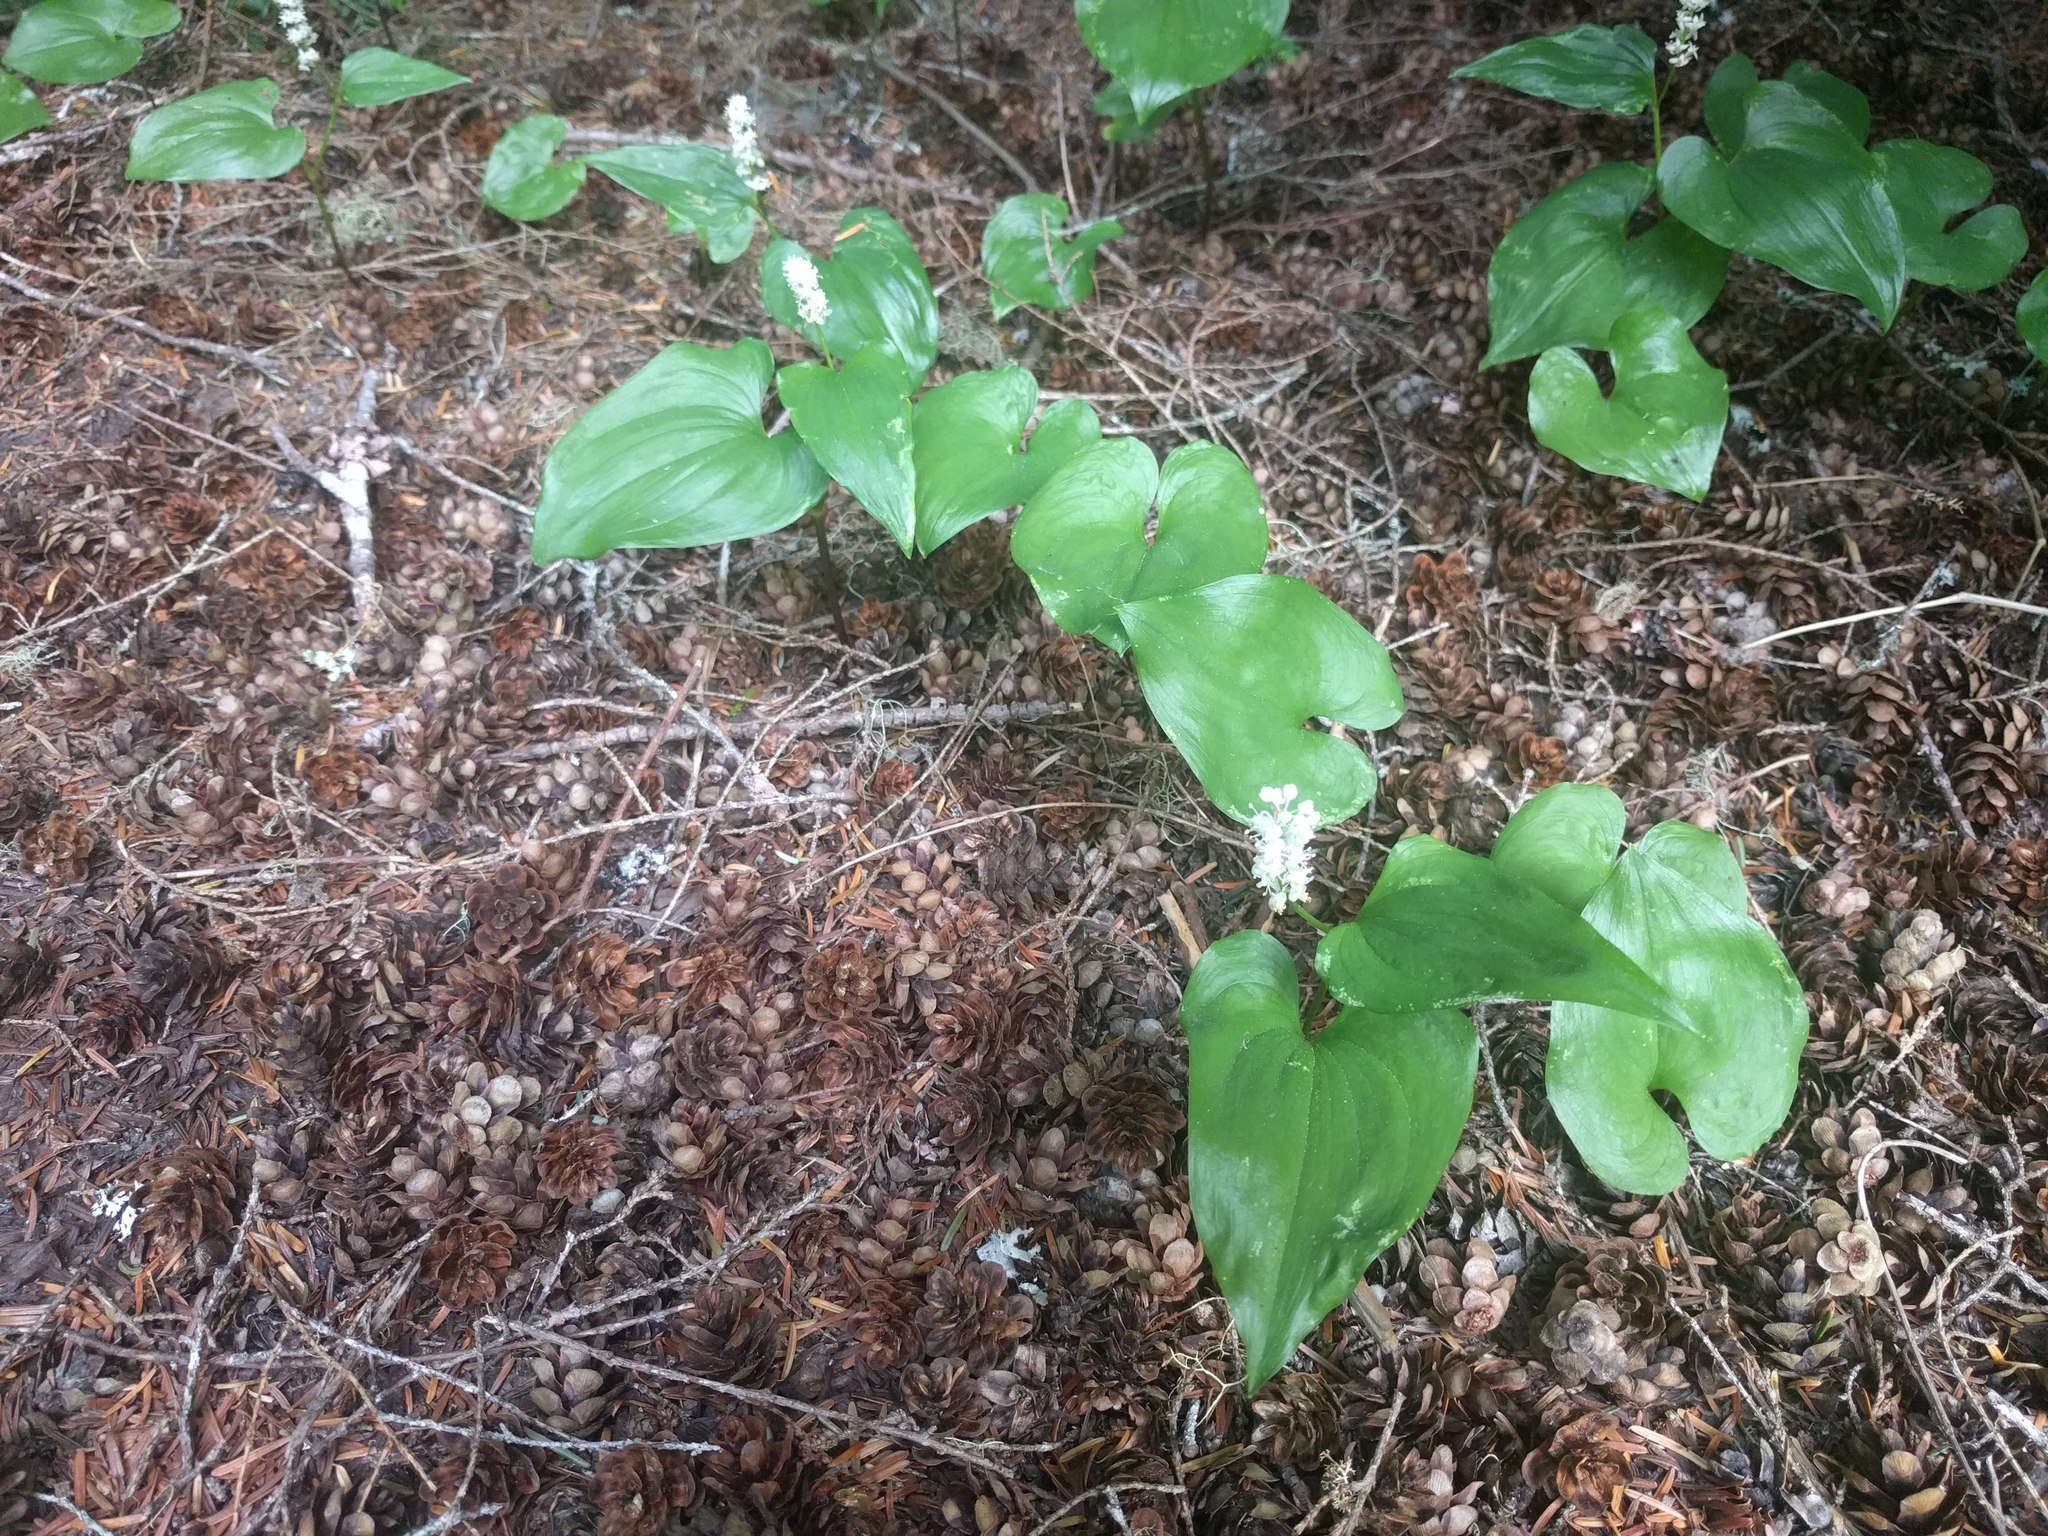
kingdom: Plantae
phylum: Tracheophyta
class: Liliopsida
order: Asparagales
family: Asparagaceae
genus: Maianthemum
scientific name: Maianthemum dilatatum
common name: False lily-of-the-valley
